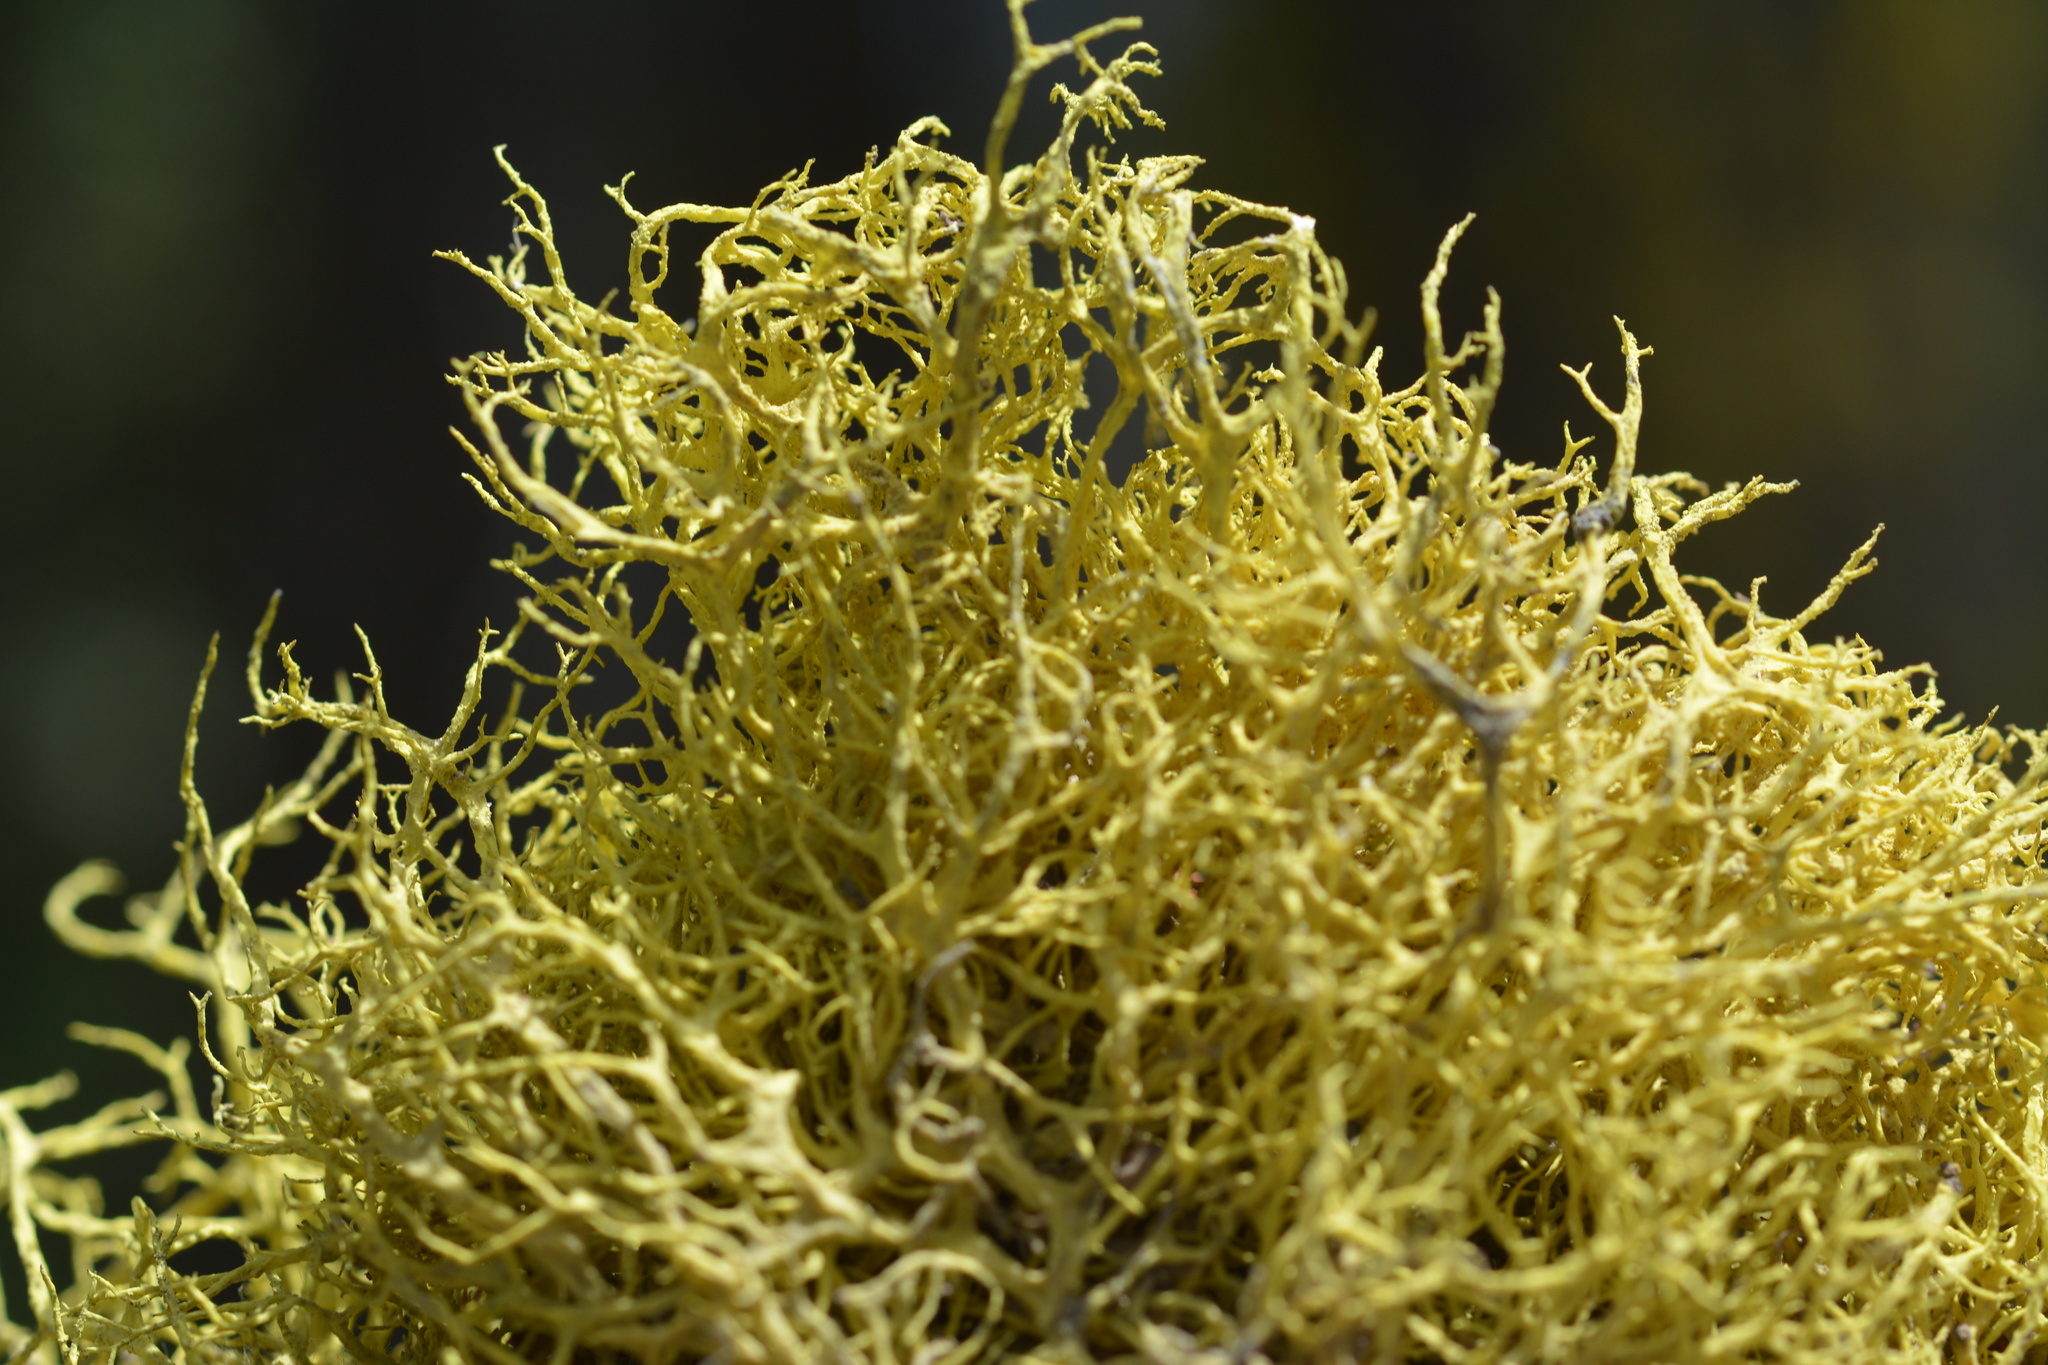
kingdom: Fungi
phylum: Ascomycota
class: Lecanoromycetes
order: Lecanorales
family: Parmeliaceae
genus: Letharia
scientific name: Letharia vulpina
